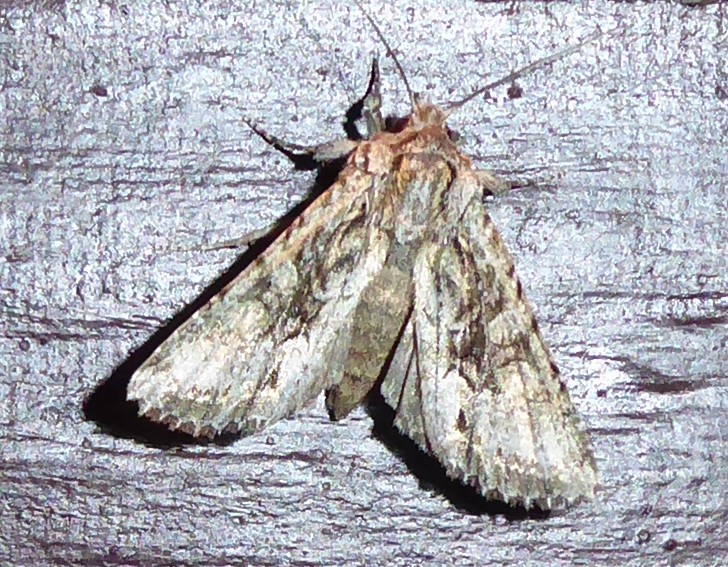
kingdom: Animalia
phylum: Arthropoda
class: Insecta
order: Lepidoptera
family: Noctuidae
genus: Ichneutica
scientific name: Ichneutica mutans
